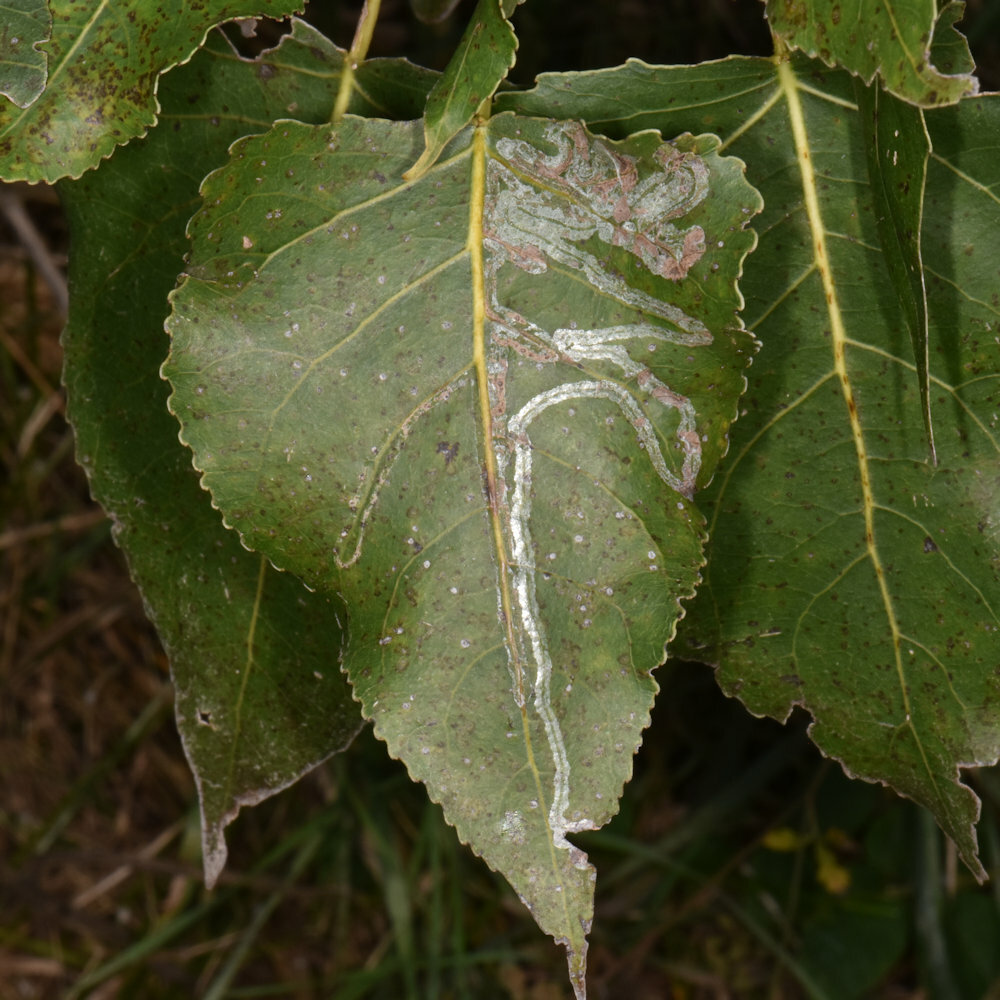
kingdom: Animalia
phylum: Arthropoda
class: Insecta
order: Lepidoptera
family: Gracillariidae
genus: Phyllocnistis
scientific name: Phyllocnistis populiella
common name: Aspen serpentine leafminer moth
